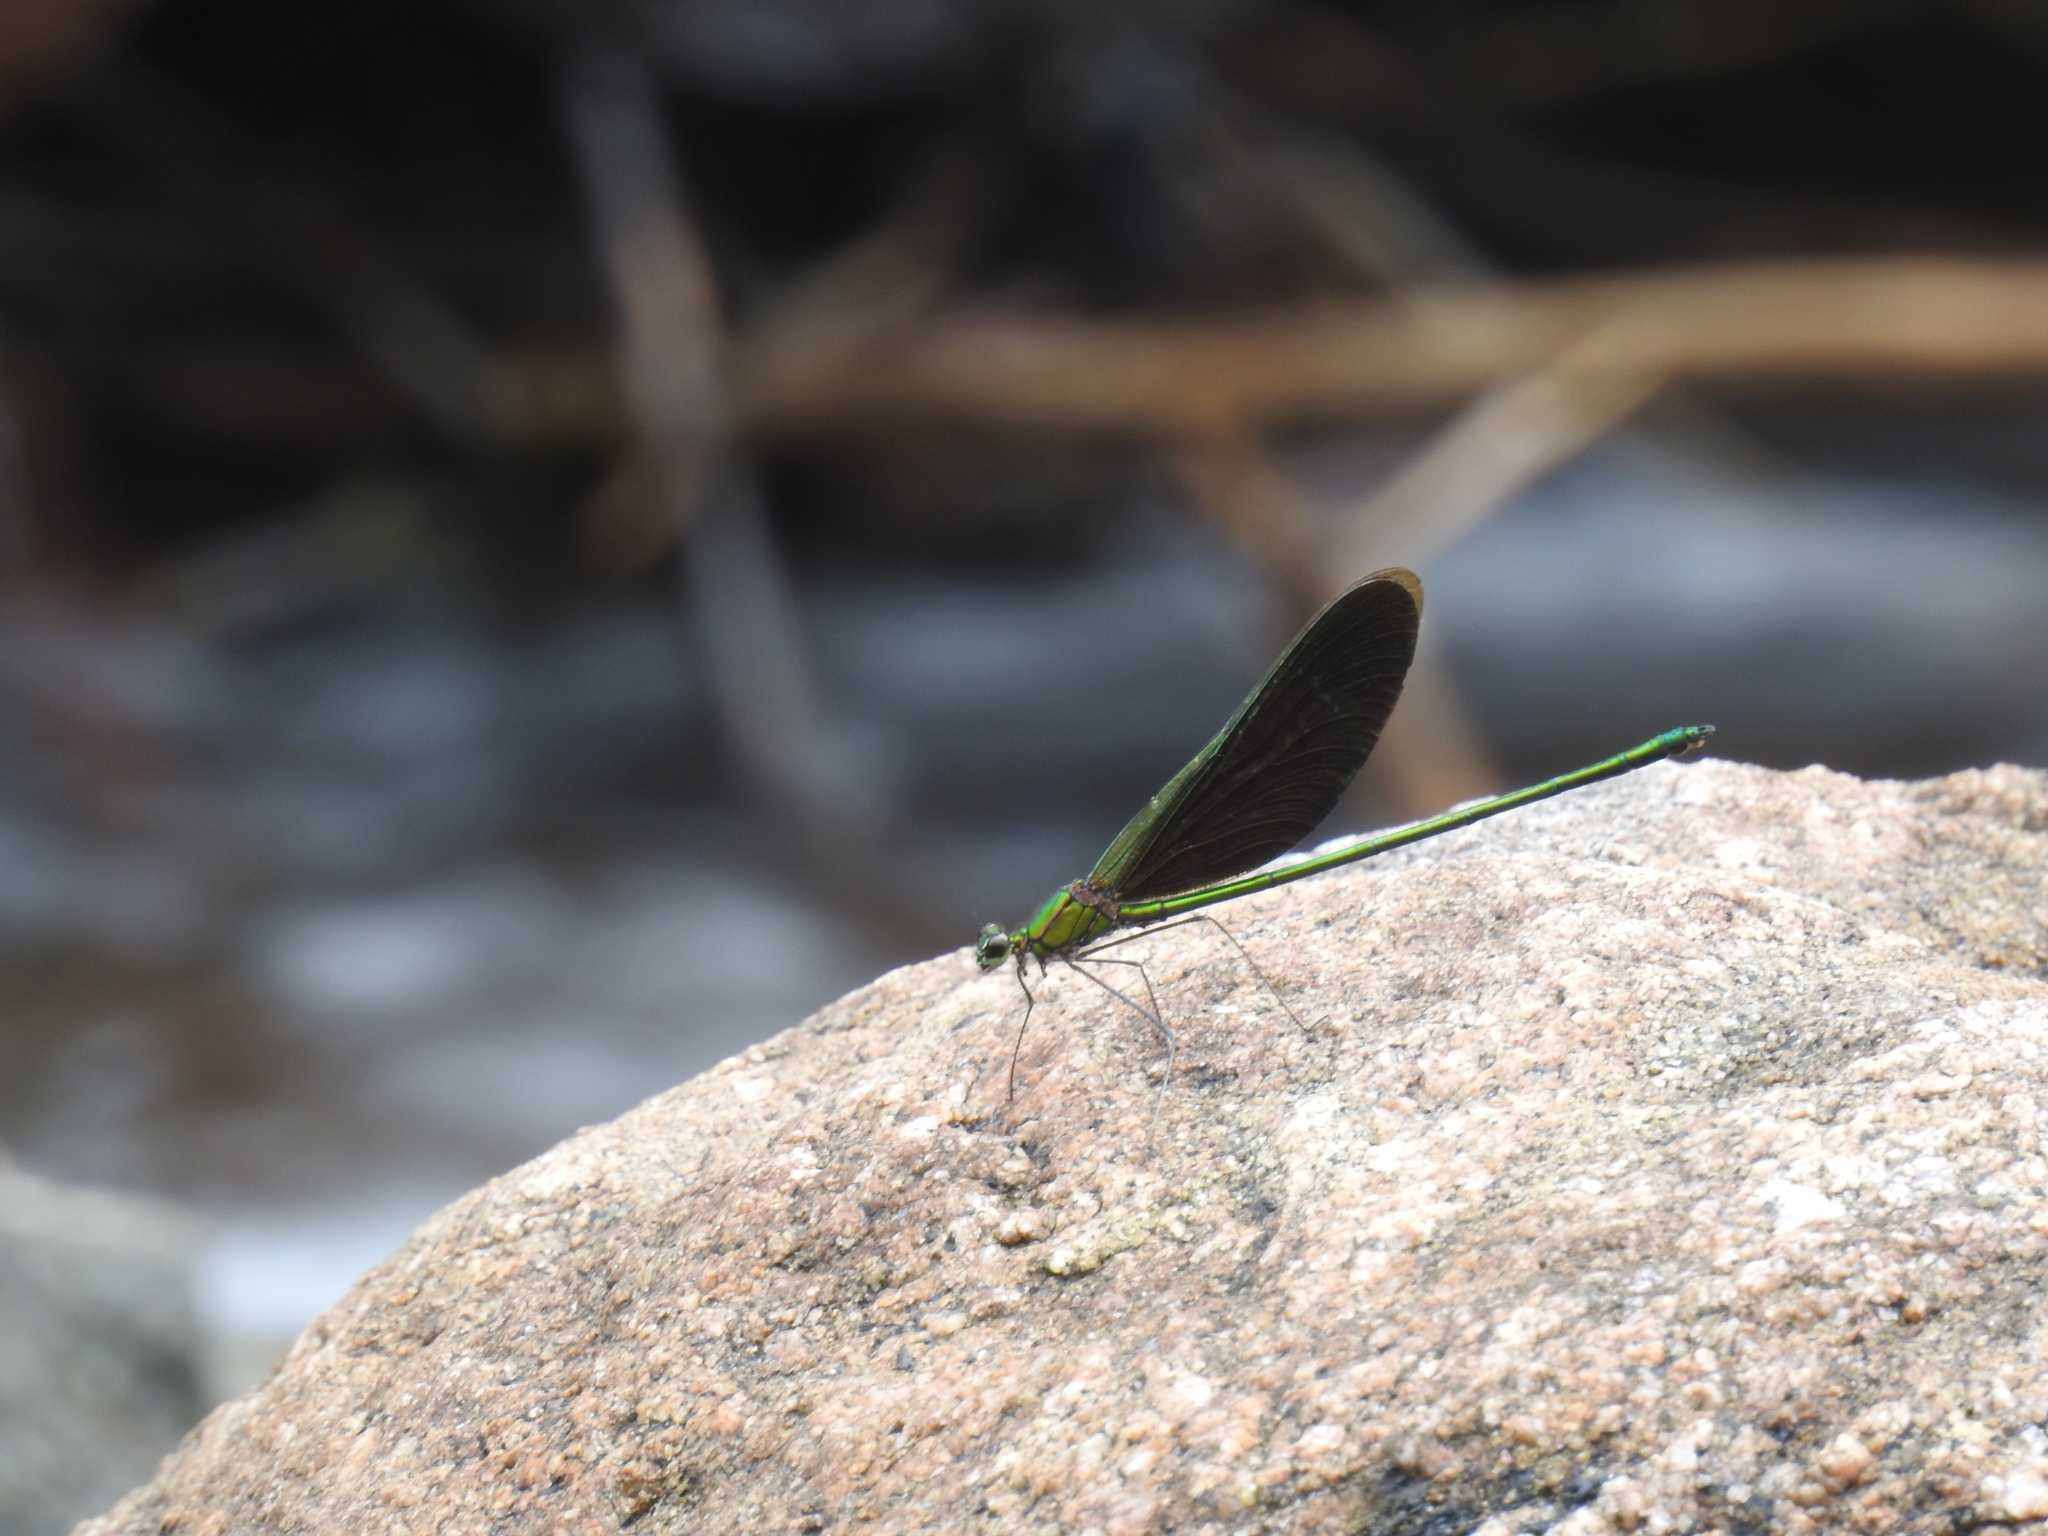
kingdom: Animalia
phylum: Arthropoda
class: Insecta
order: Odonata
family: Calopterygidae
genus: Neurobasis
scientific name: Neurobasis chinensis
